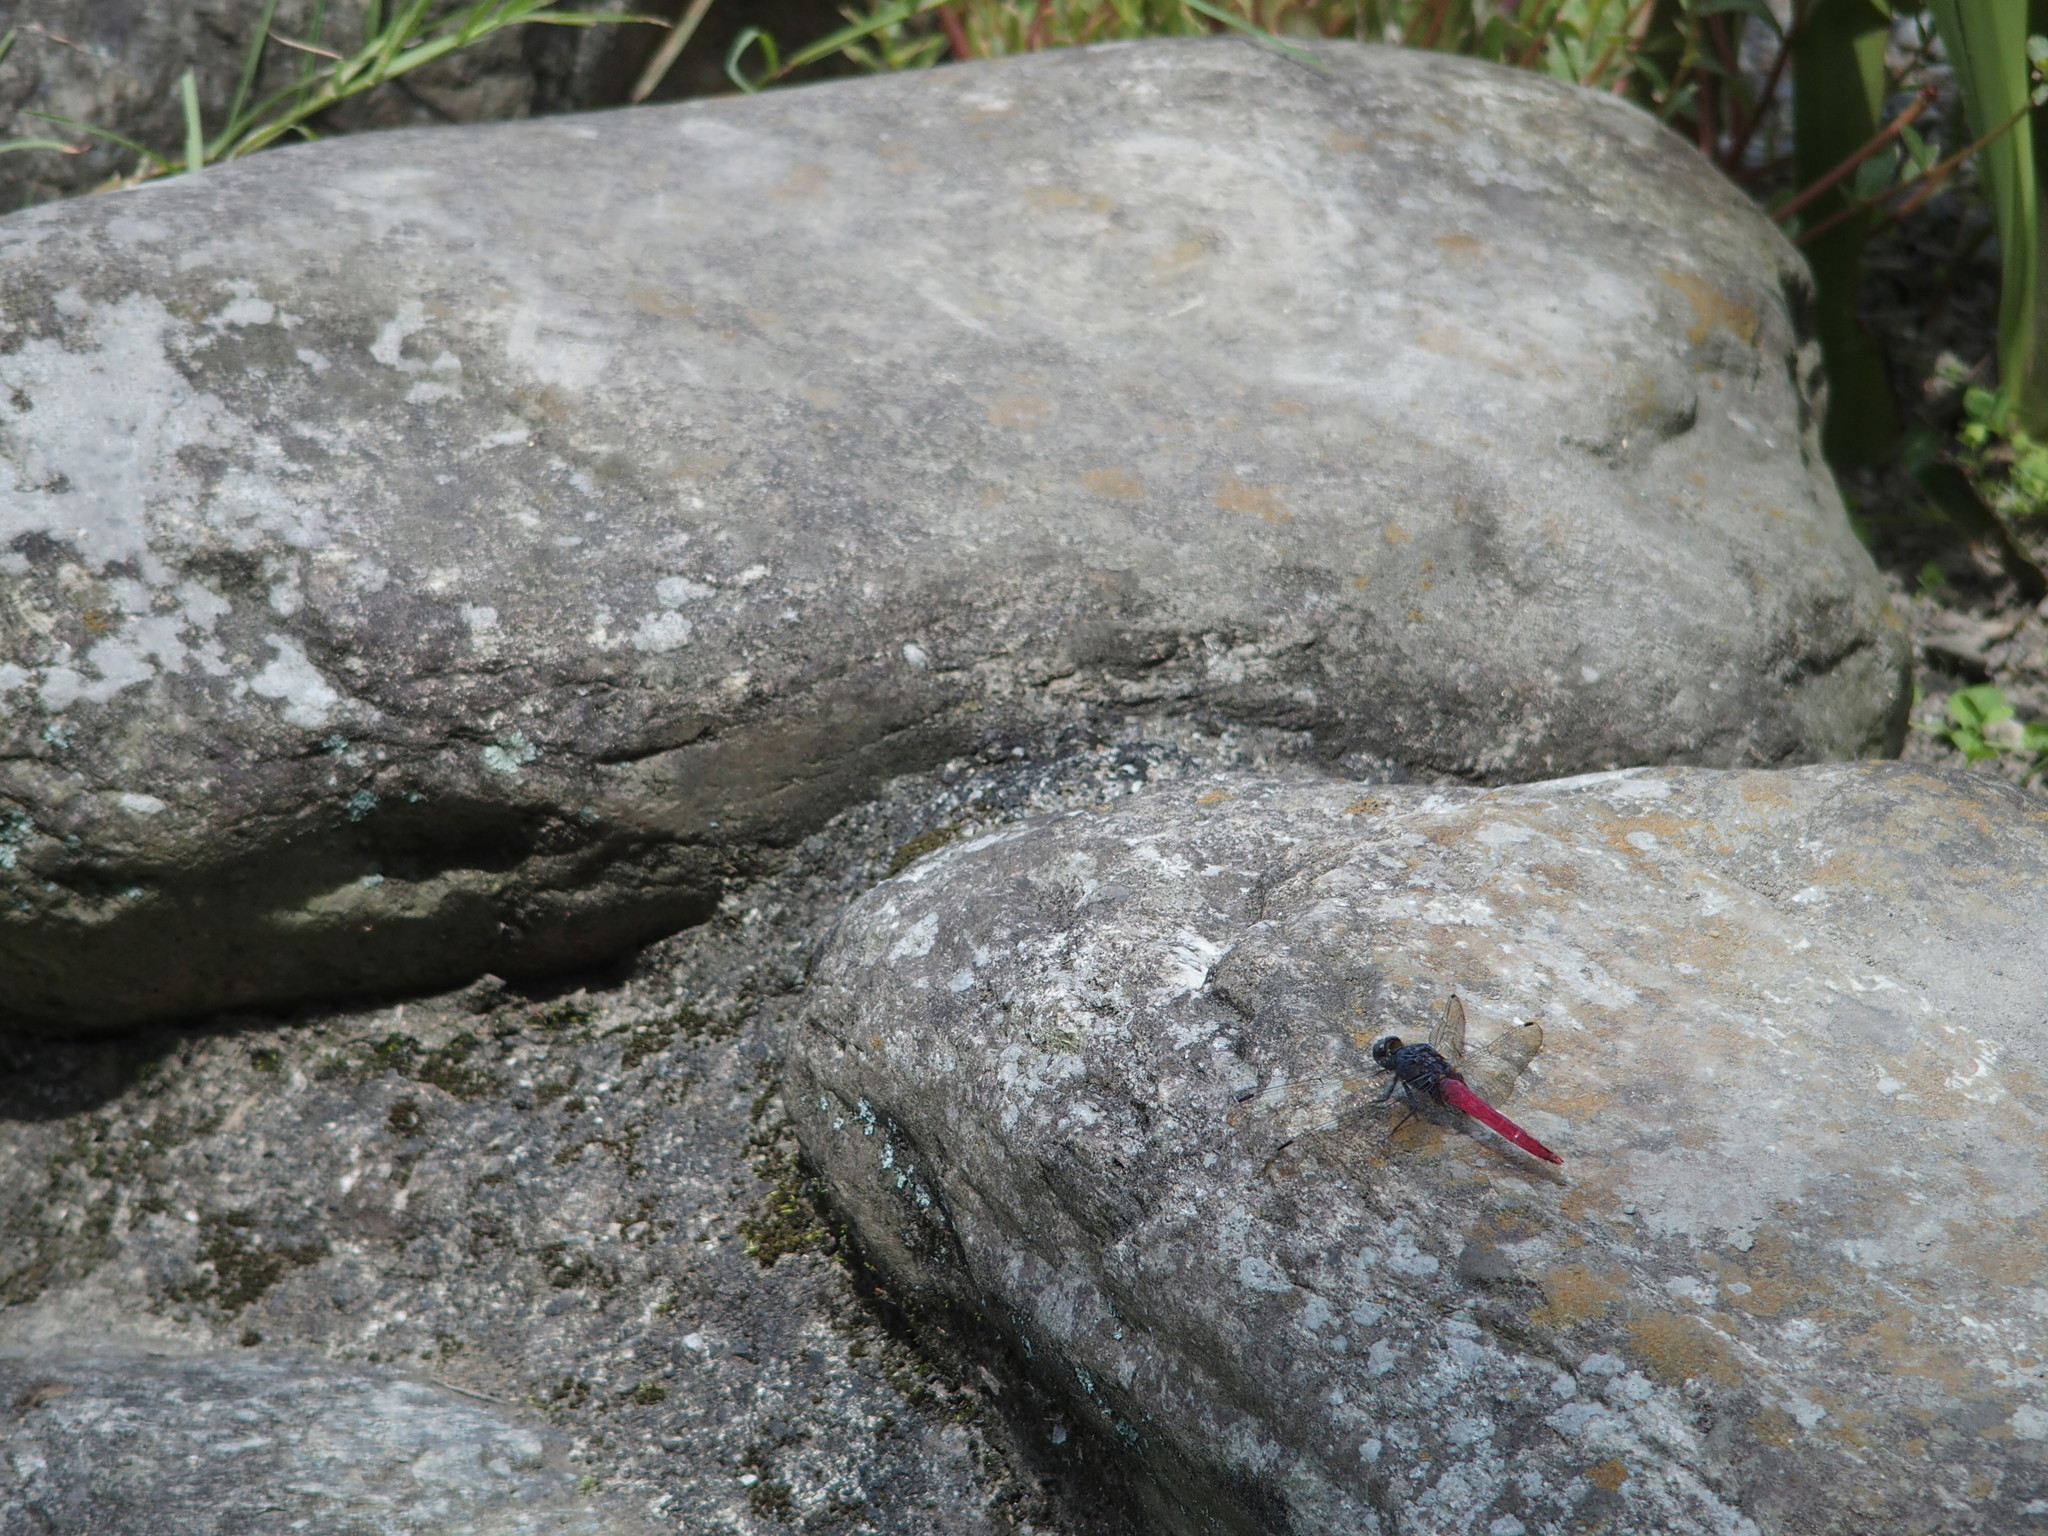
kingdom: Animalia
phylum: Arthropoda
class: Insecta
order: Odonata
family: Libellulidae
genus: Orthetrum
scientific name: Orthetrum pruinosum
